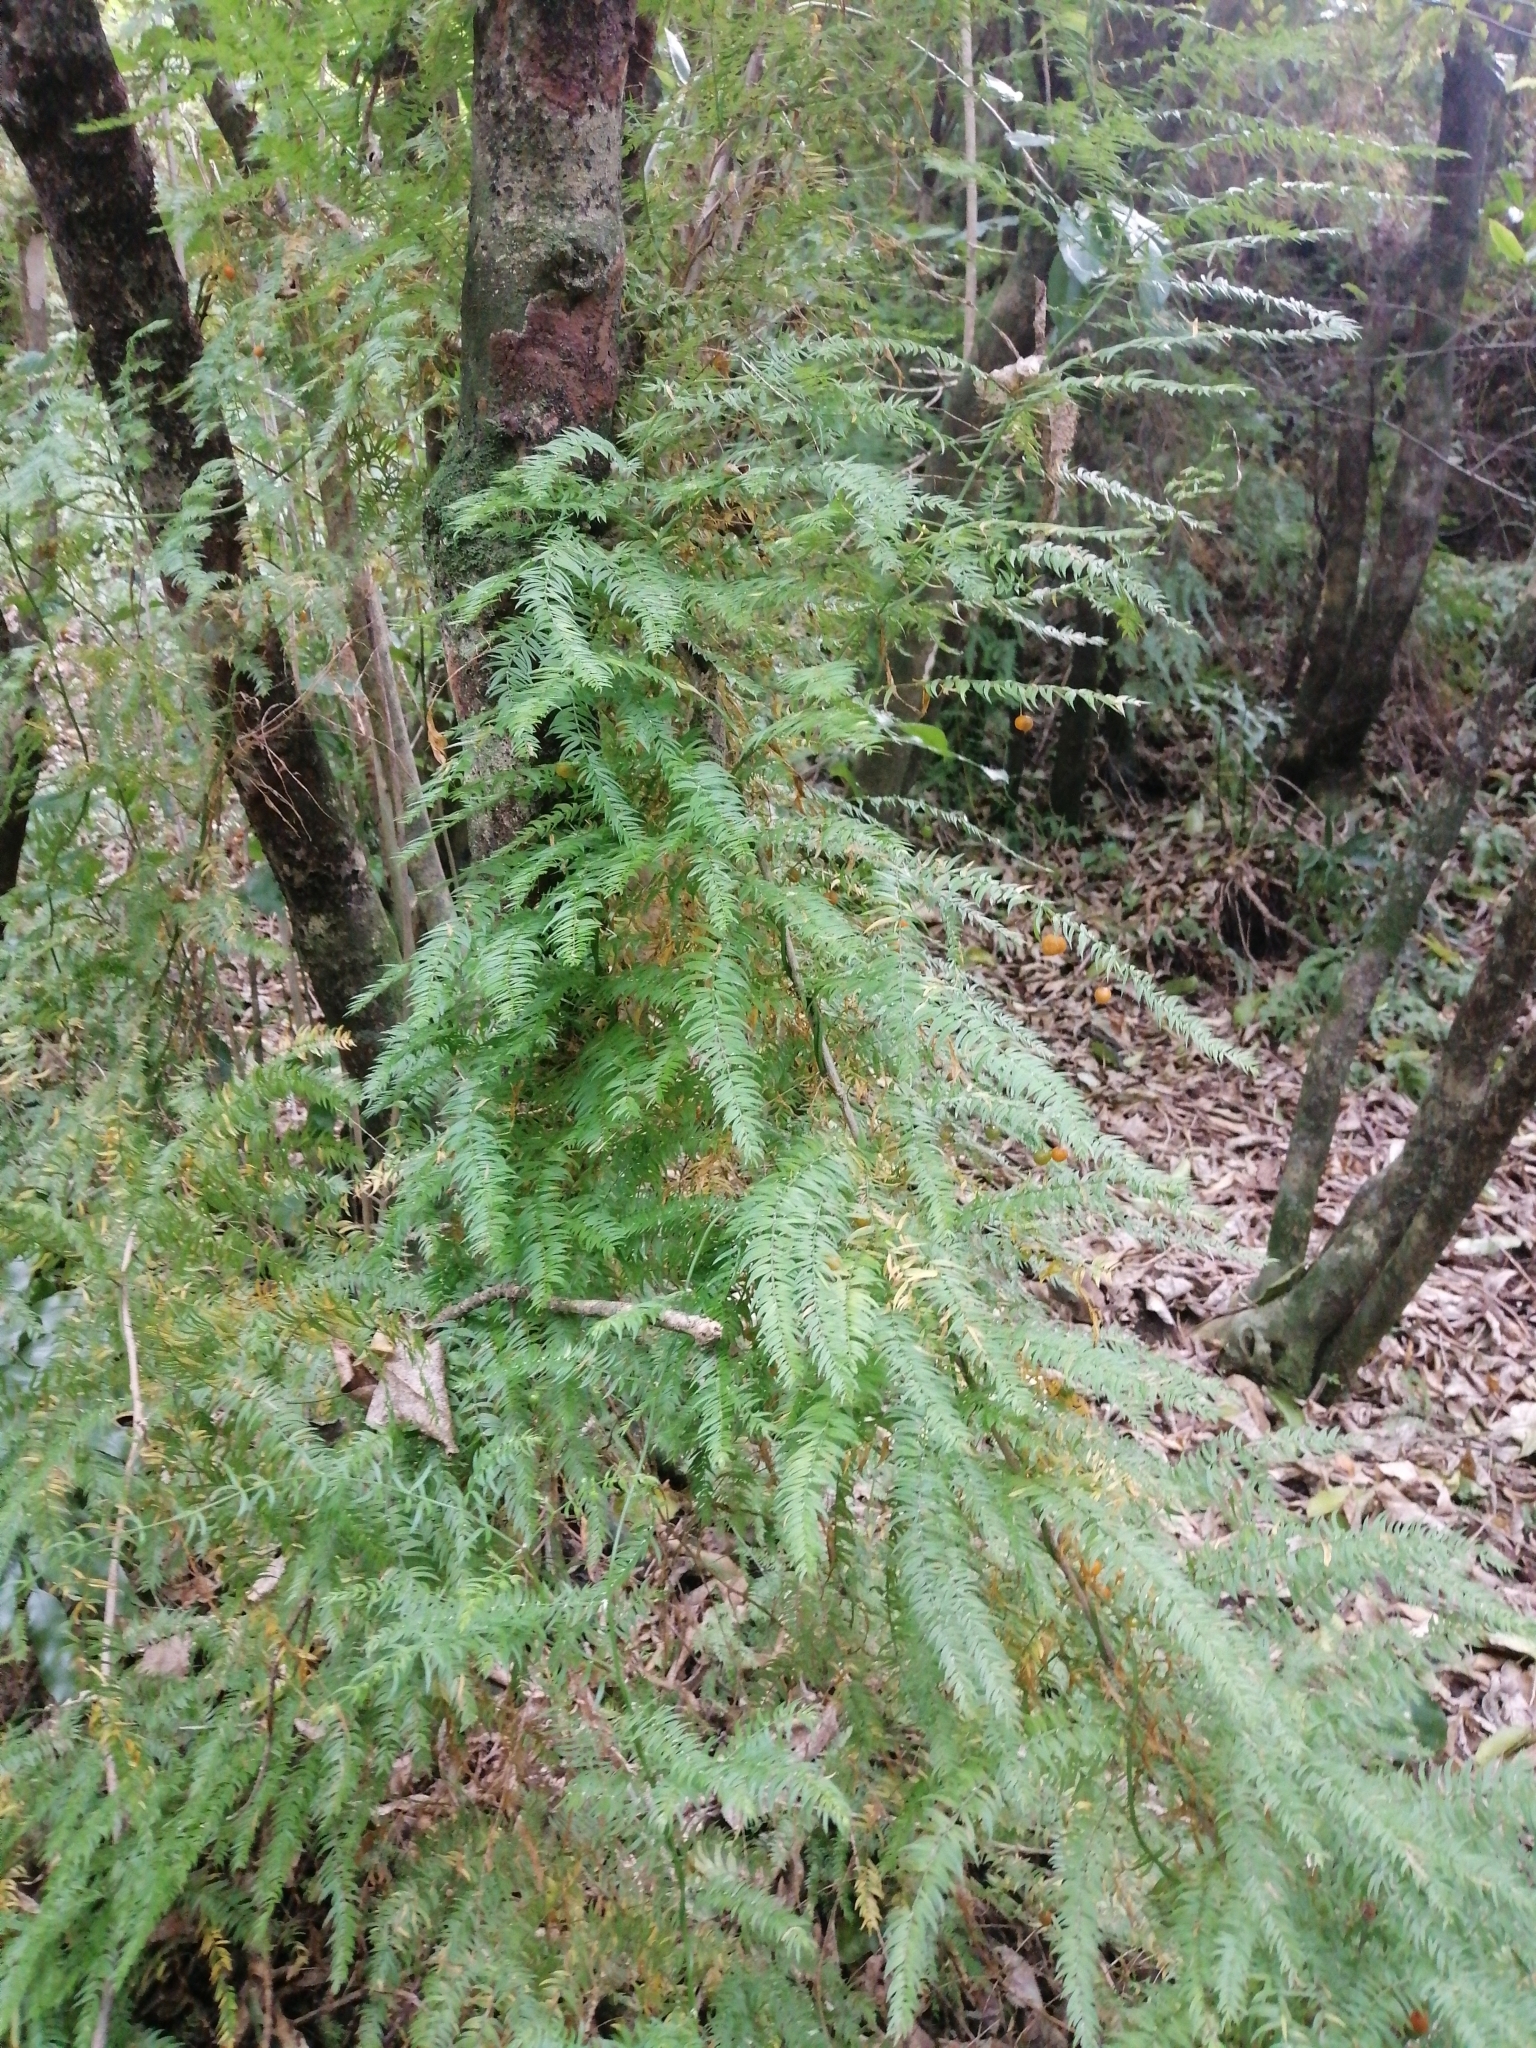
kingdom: Plantae
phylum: Tracheophyta
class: Liliopsida
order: Asparagales
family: Asparagaceae
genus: Asparagus
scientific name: Asparagus scandens
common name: Asparagus-fern
